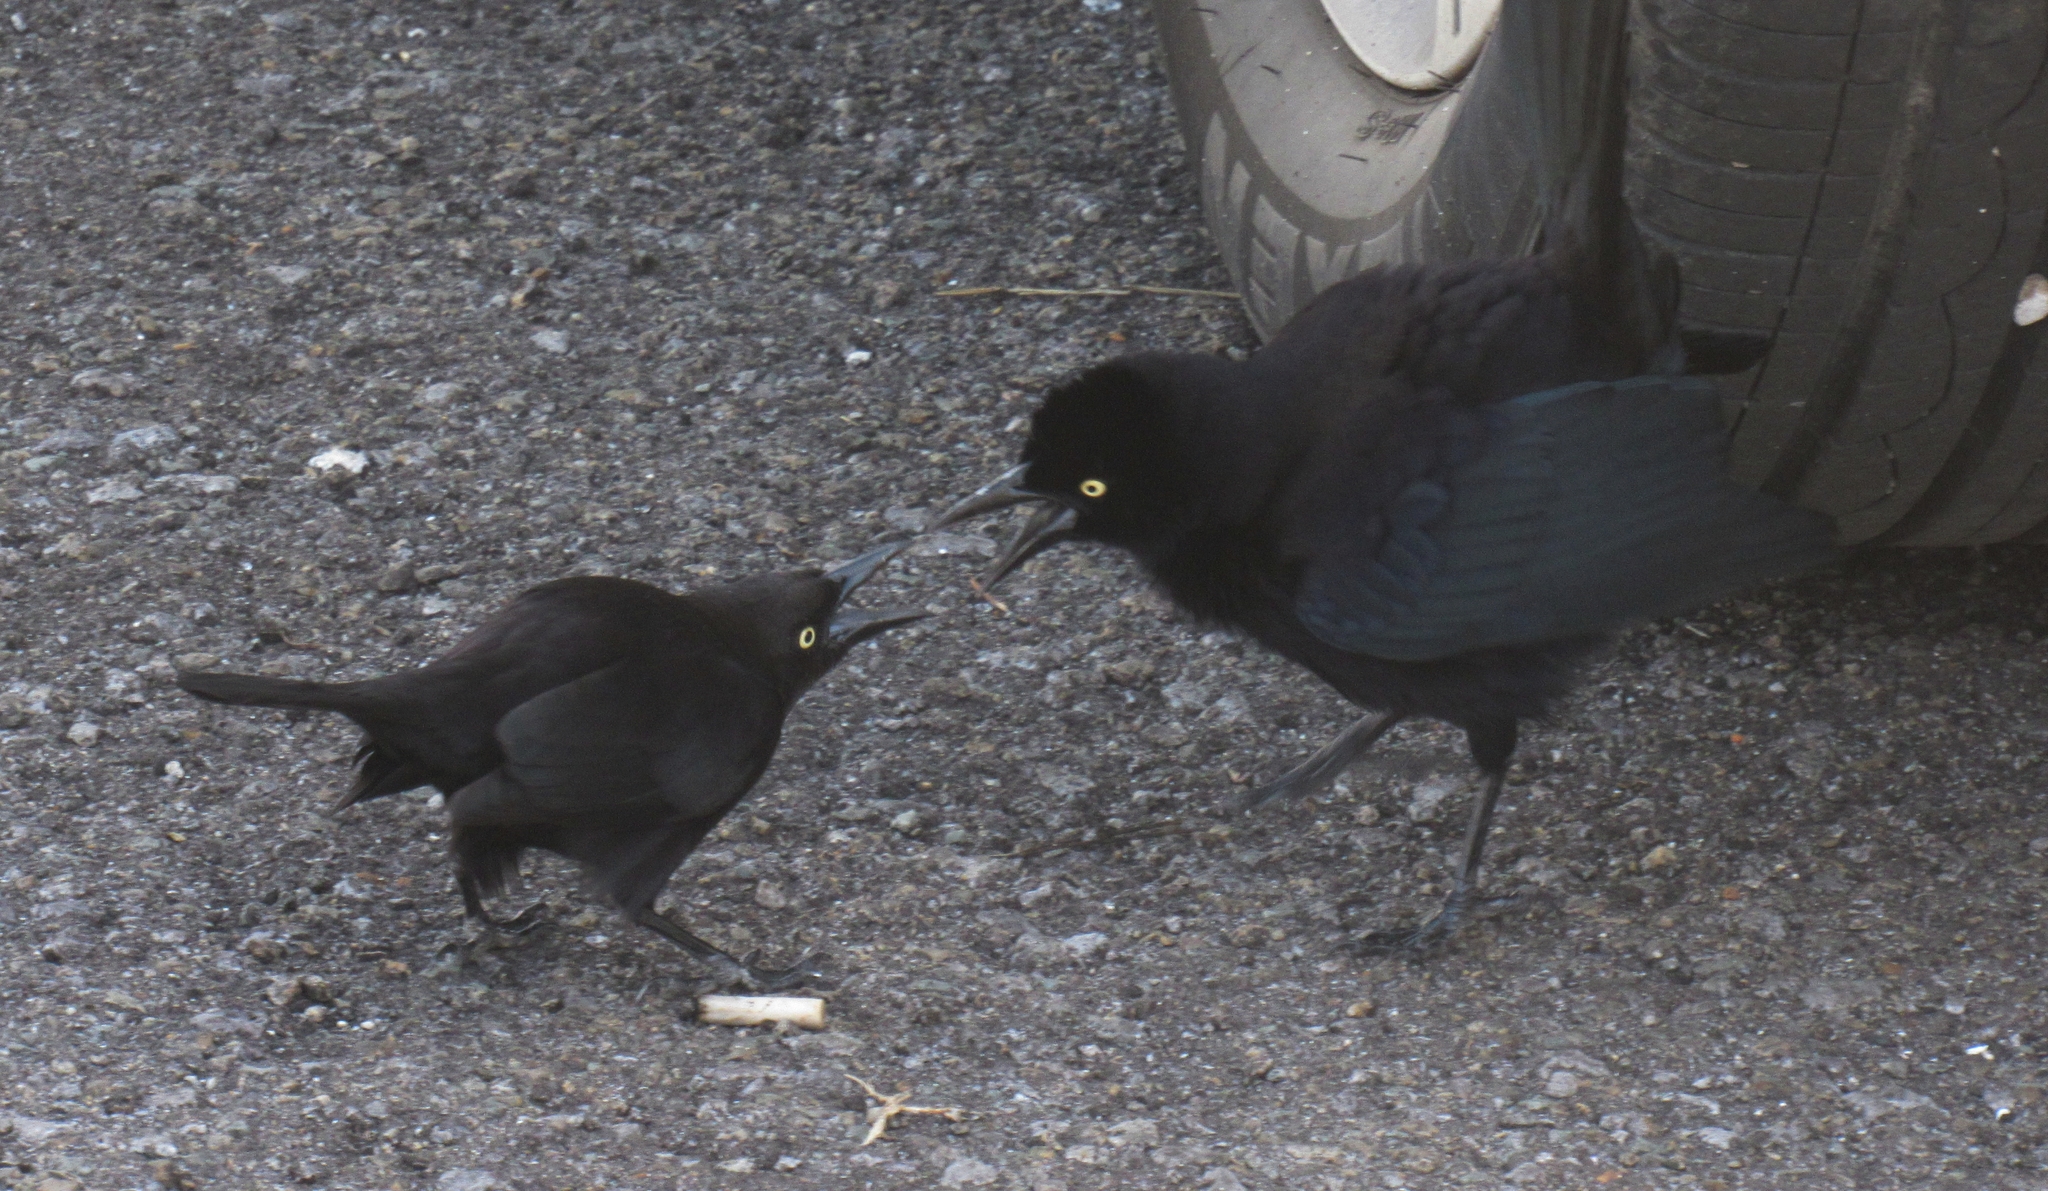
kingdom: Animalia
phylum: Chordata
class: Aves
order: Passeriformes
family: Icteridae
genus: Quiscalus
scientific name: Quiscalus lugubris
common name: Carib grackle
